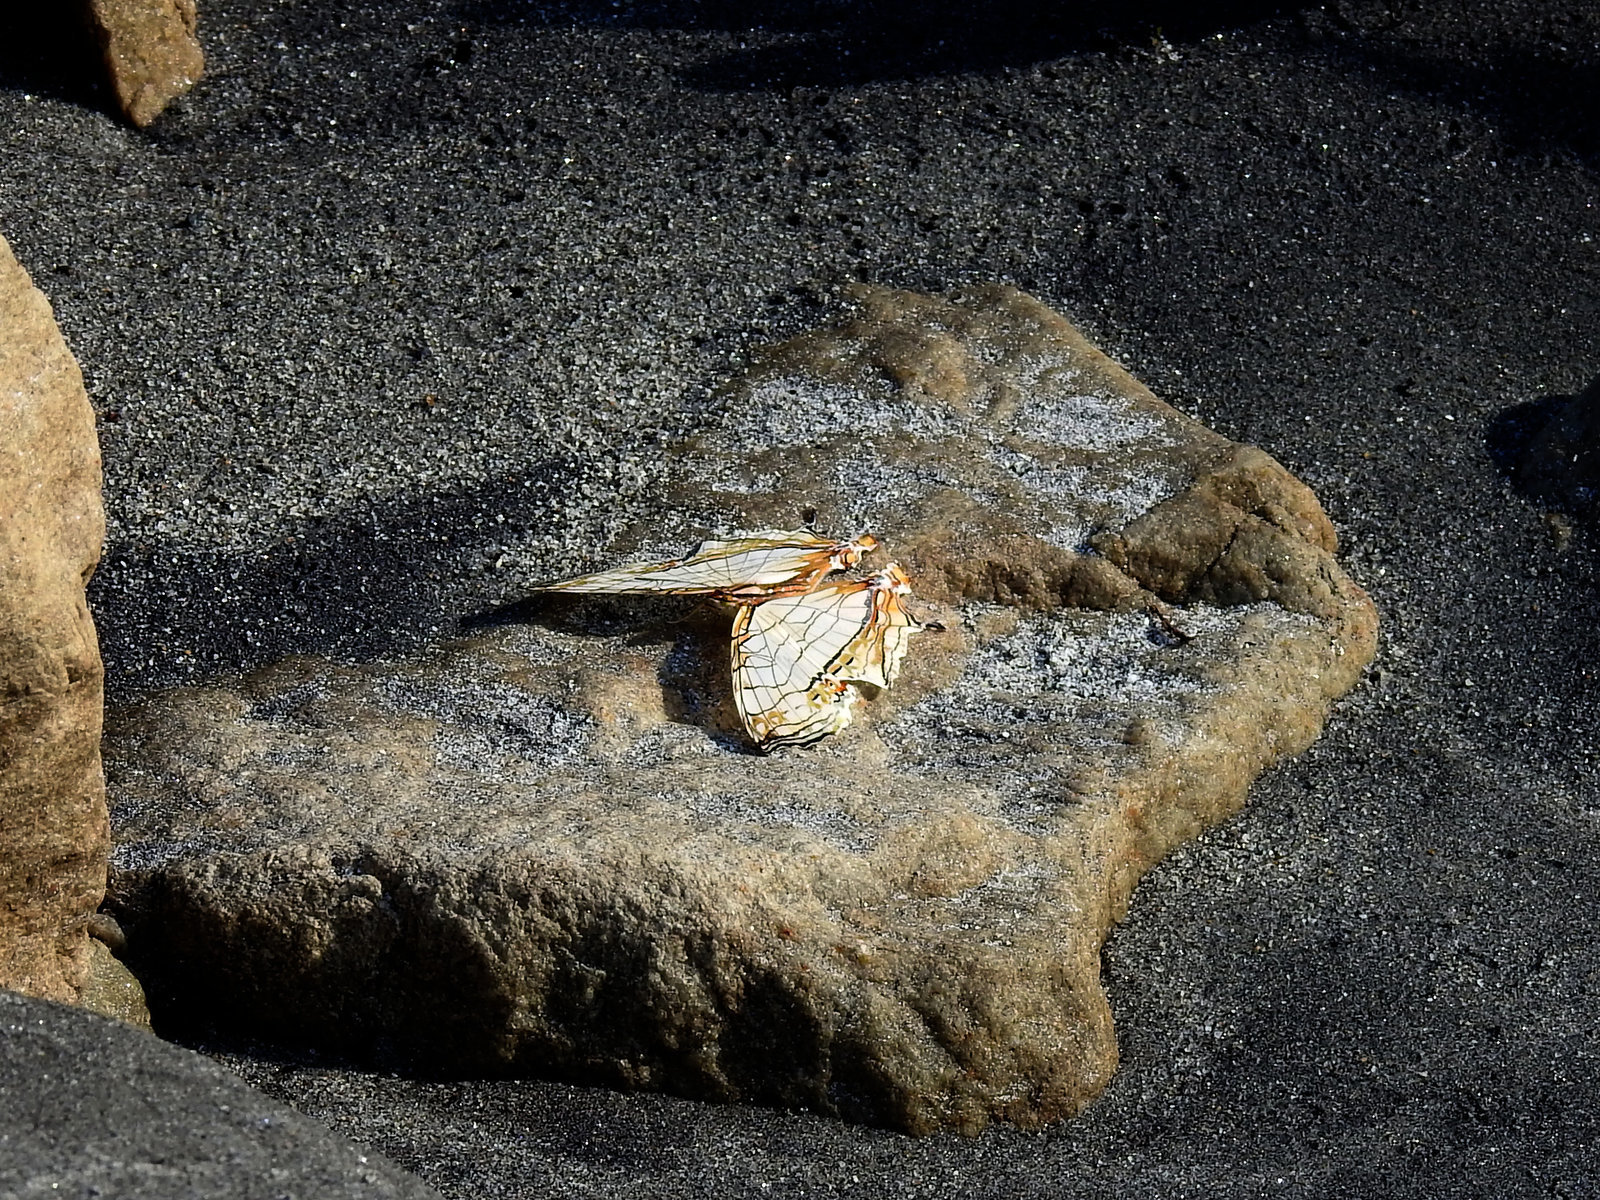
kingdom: Animalia
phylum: Arthropoda
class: Insecta
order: Lepidoptera
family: Nymphalidae
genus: Cyrestis
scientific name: Cyrestis thyodamas
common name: Common mapwing
